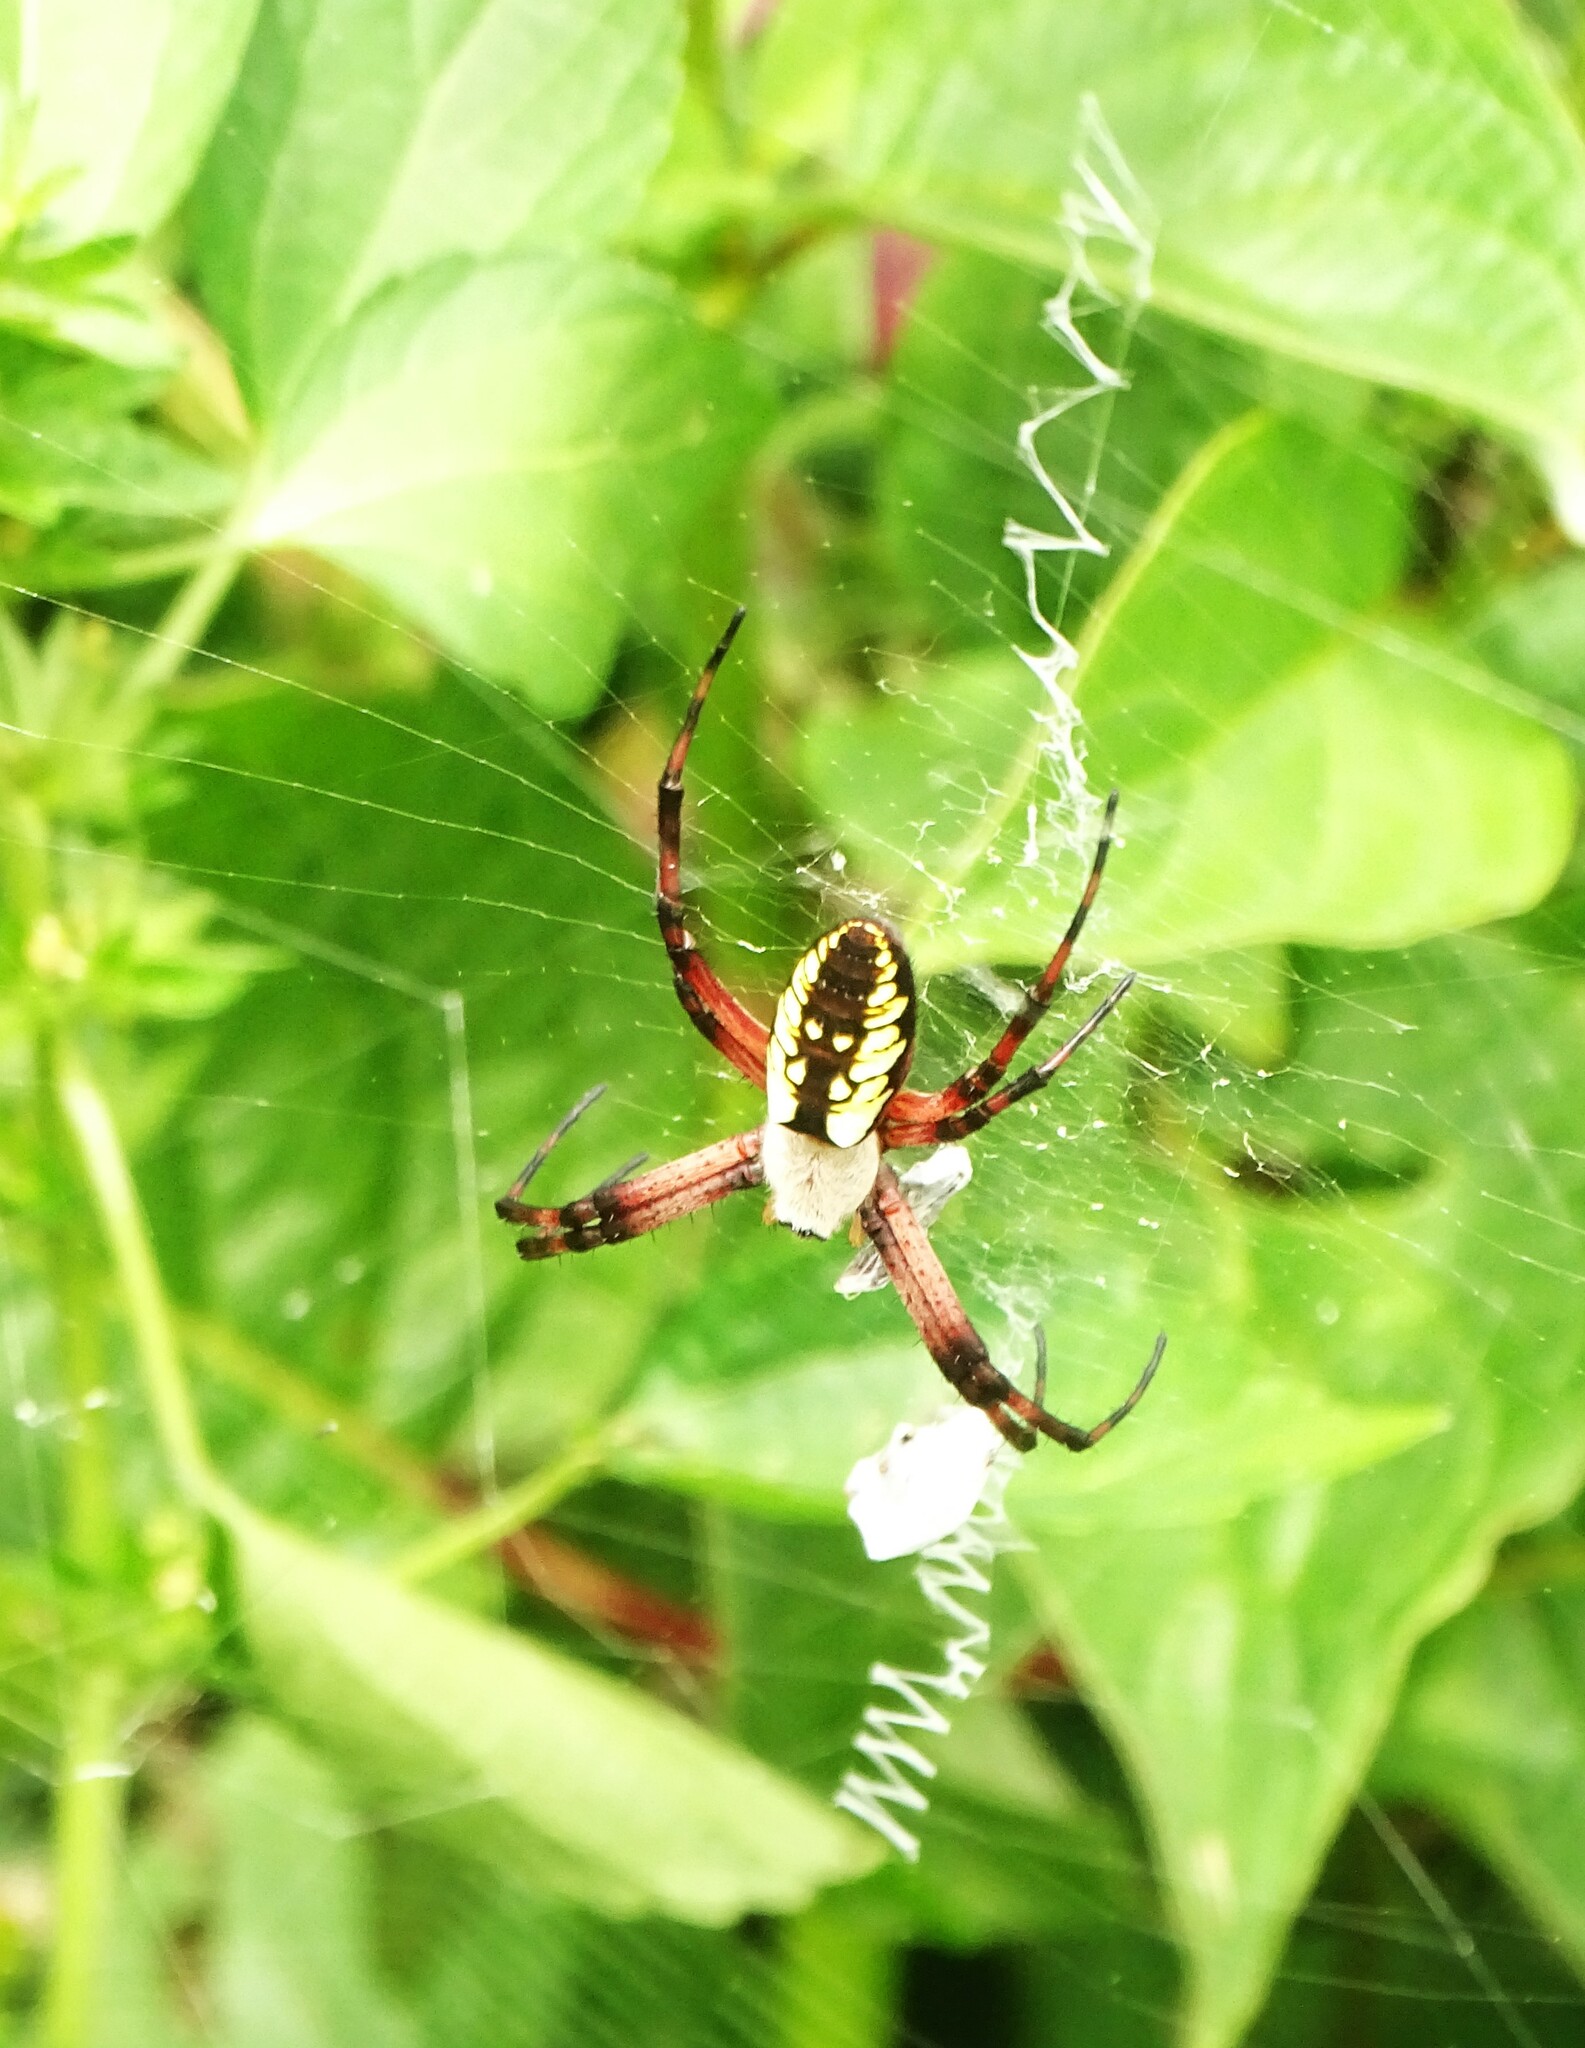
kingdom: Animalia
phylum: Arthropoda
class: Arachnida
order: Araneae
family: Araneidae
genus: Argiope
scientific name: Argiope aurantia
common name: Orb weavers
